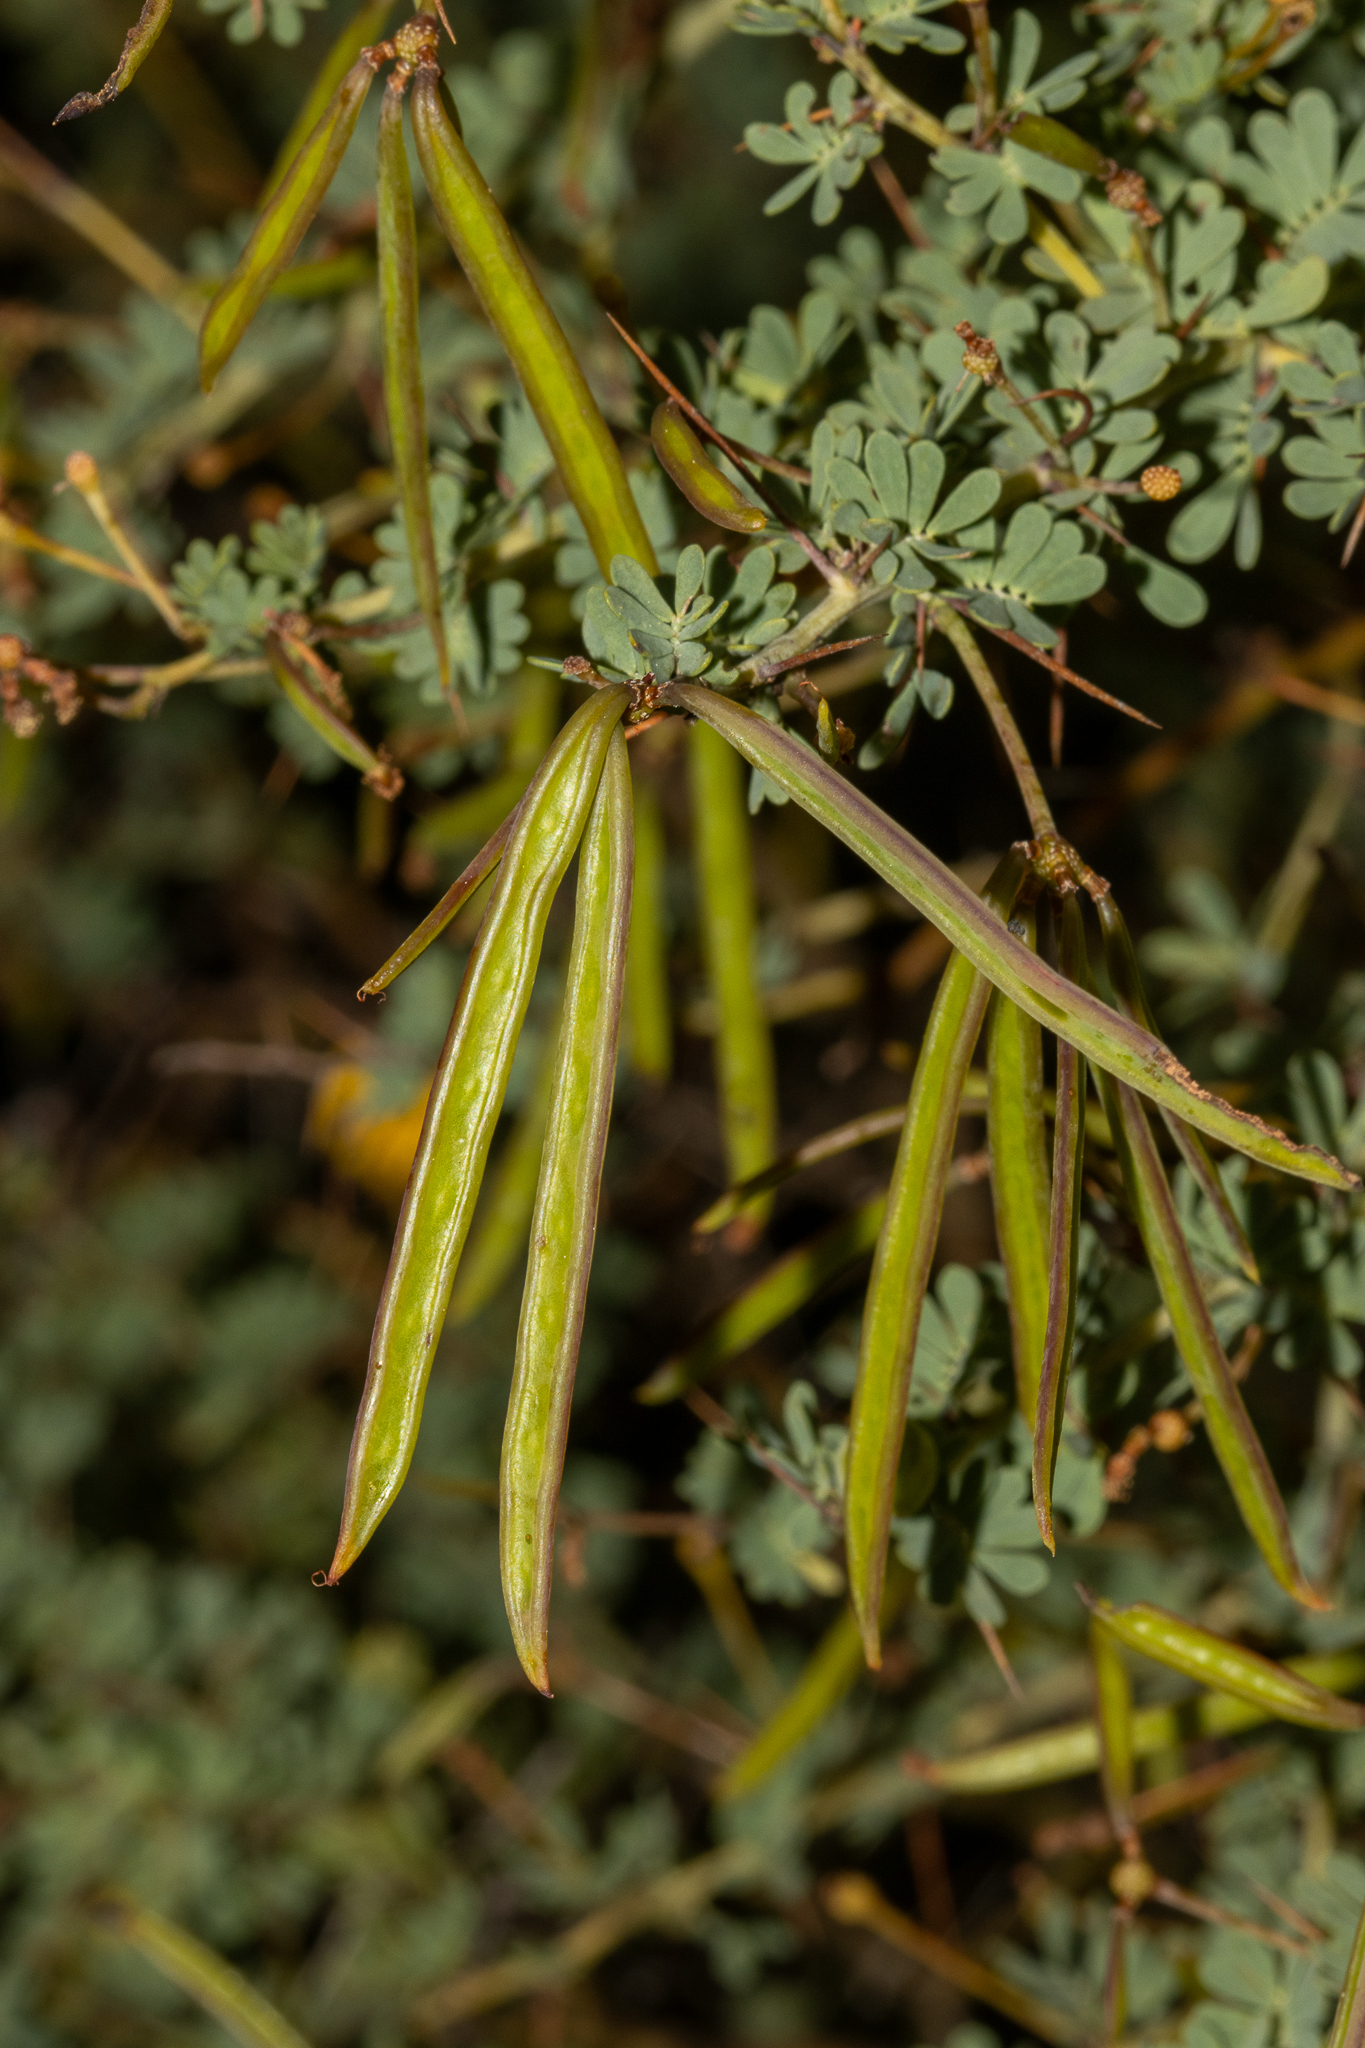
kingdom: Plantae
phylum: Tracheophyta
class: Magnoliopsida
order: Fabales
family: Fabaceae
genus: Acacia
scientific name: Acacia pulchella
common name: Prickly moses
